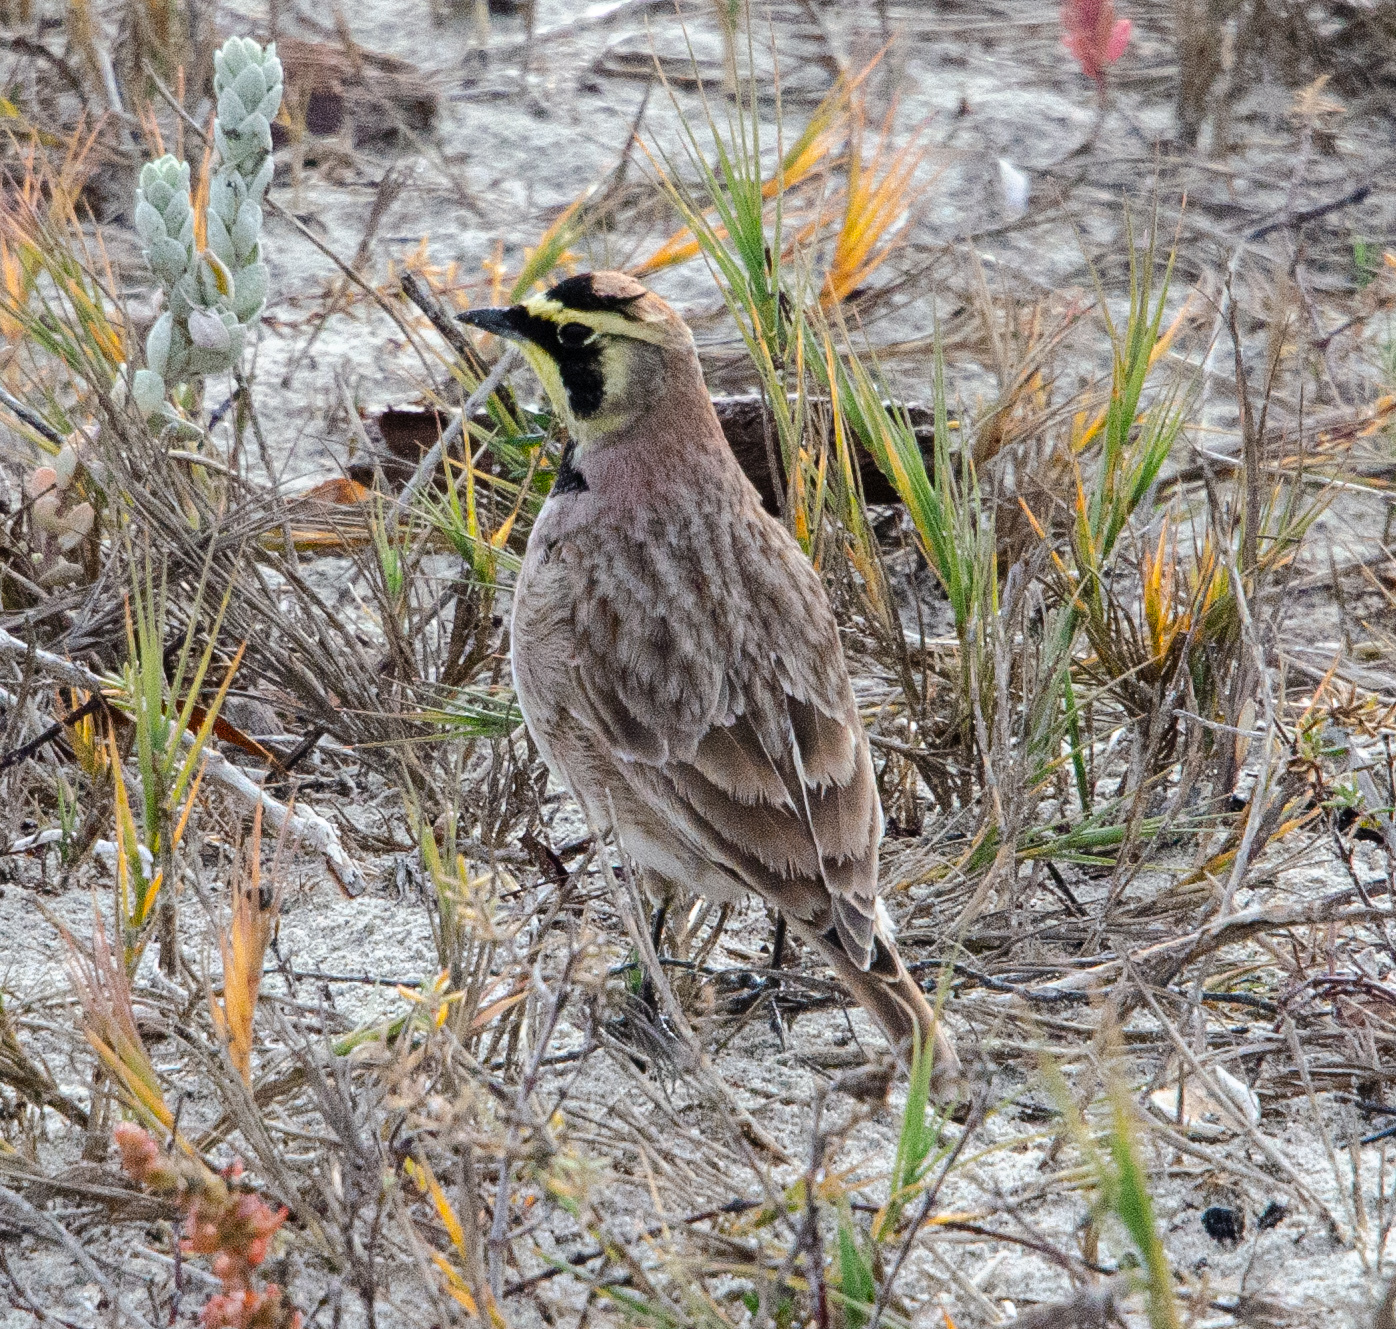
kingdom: Animalia
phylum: Chordata
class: Aves
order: Passeriformes
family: Alaudidae
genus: Eremophila
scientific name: Eremophila alpestris
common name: Horned lark
